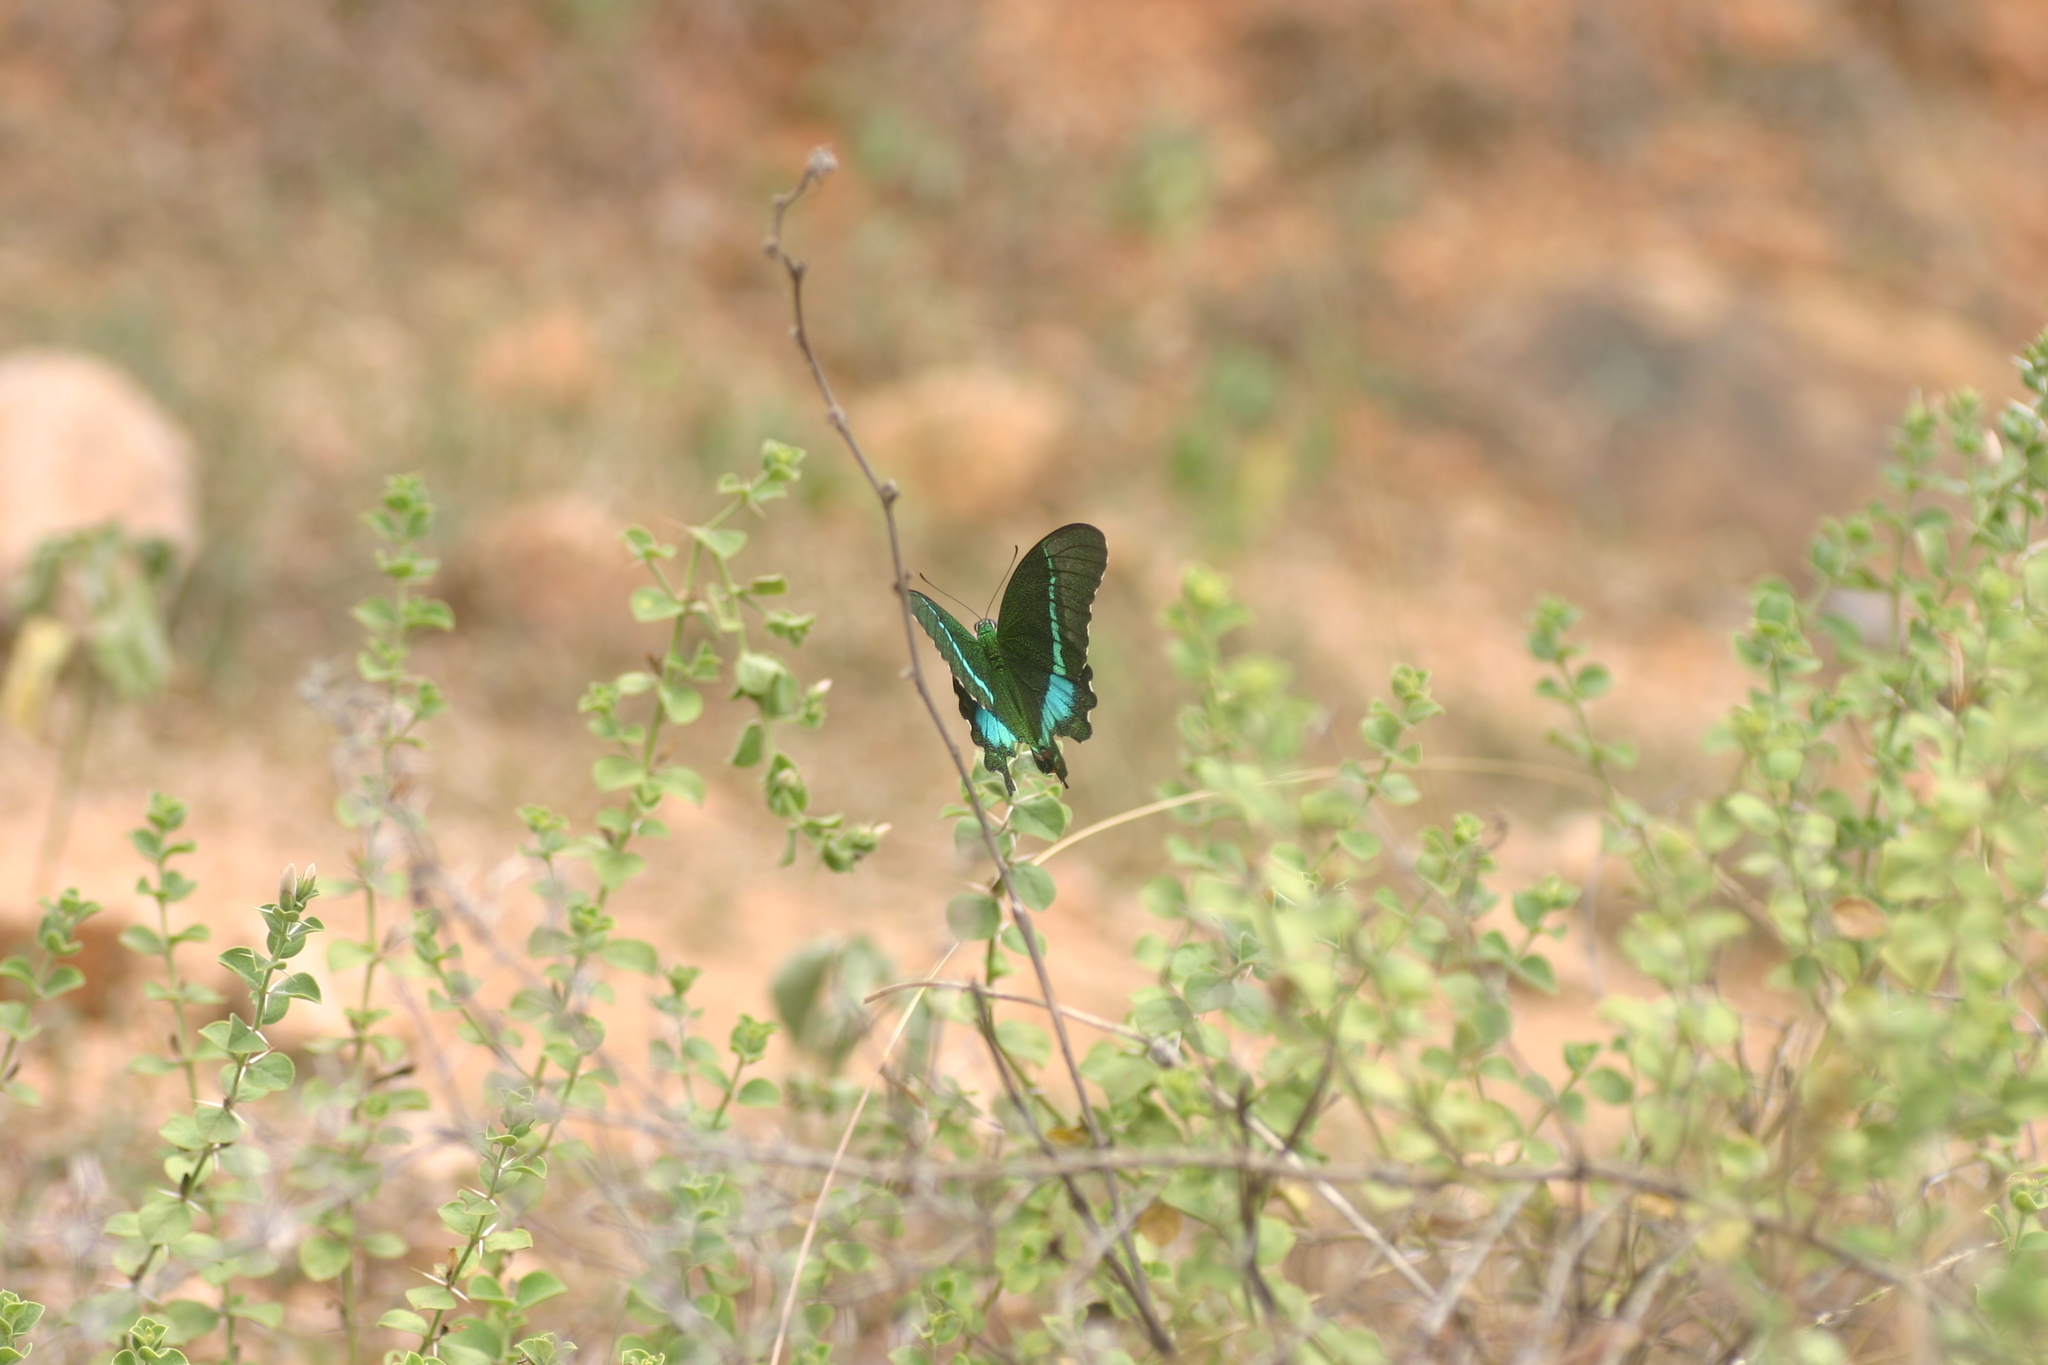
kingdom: Animalia
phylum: Arthropoda
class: Insecta
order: Lepidoptera
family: Papilionidae
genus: Papilio
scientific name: Papilio crino
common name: Common banded peacock
